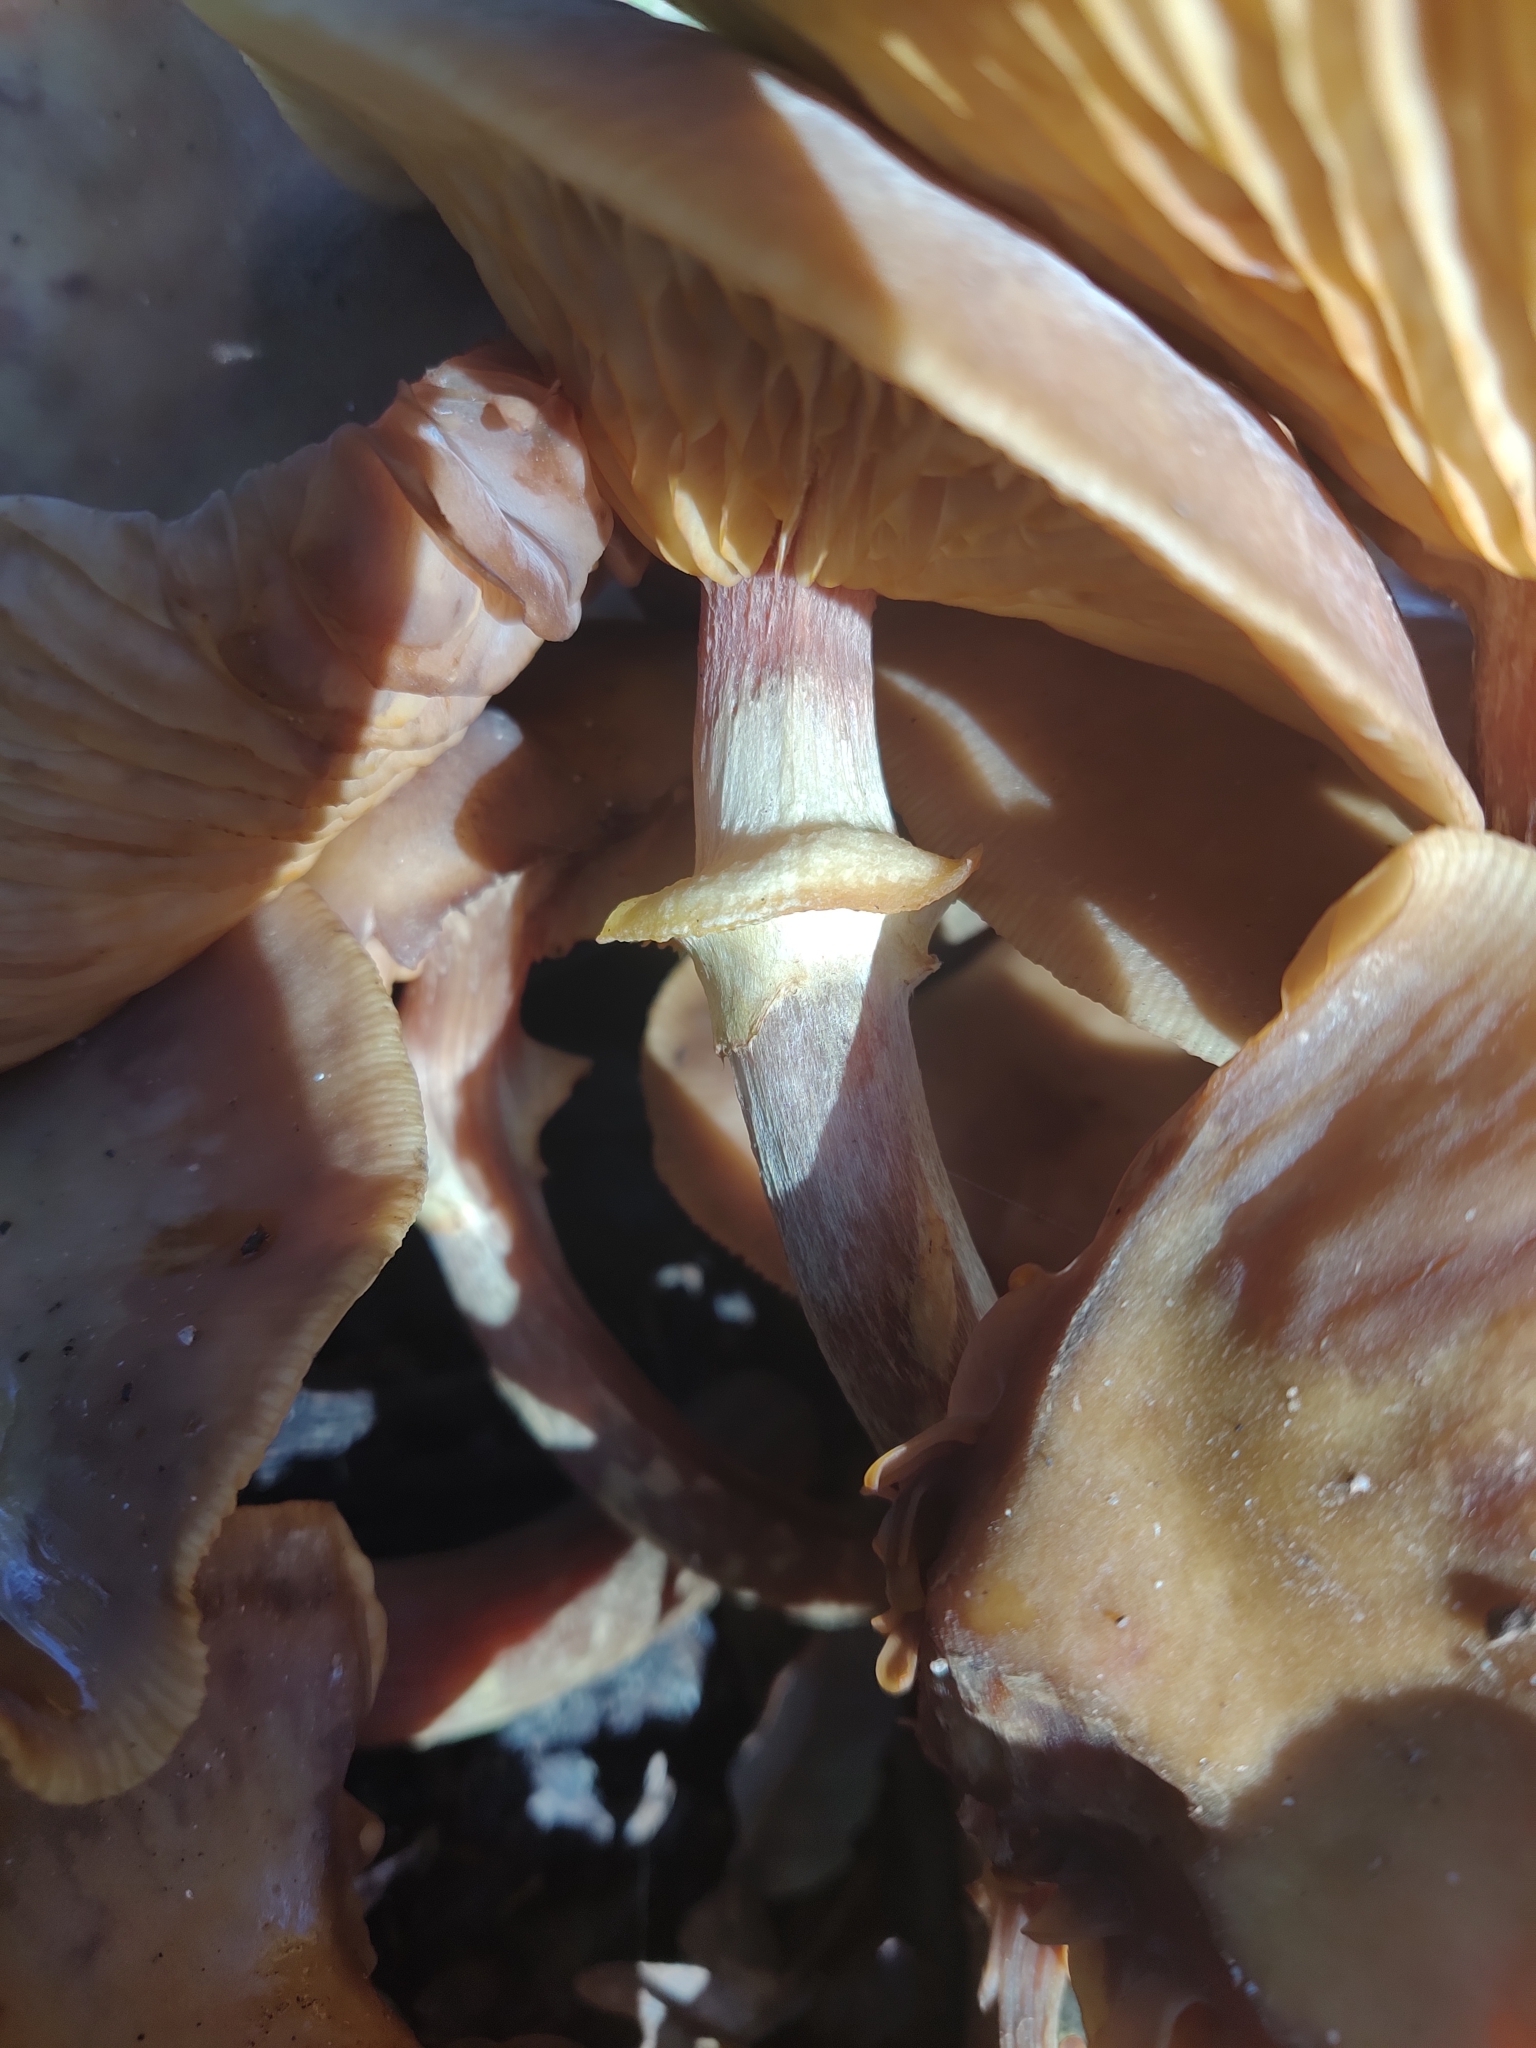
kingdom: Fungi
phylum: Basidiomycota
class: Agaricomycetes
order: Agaricales
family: Physalacriaceae
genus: Armillaria
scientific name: Armillaria mellea
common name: Honey fungus
